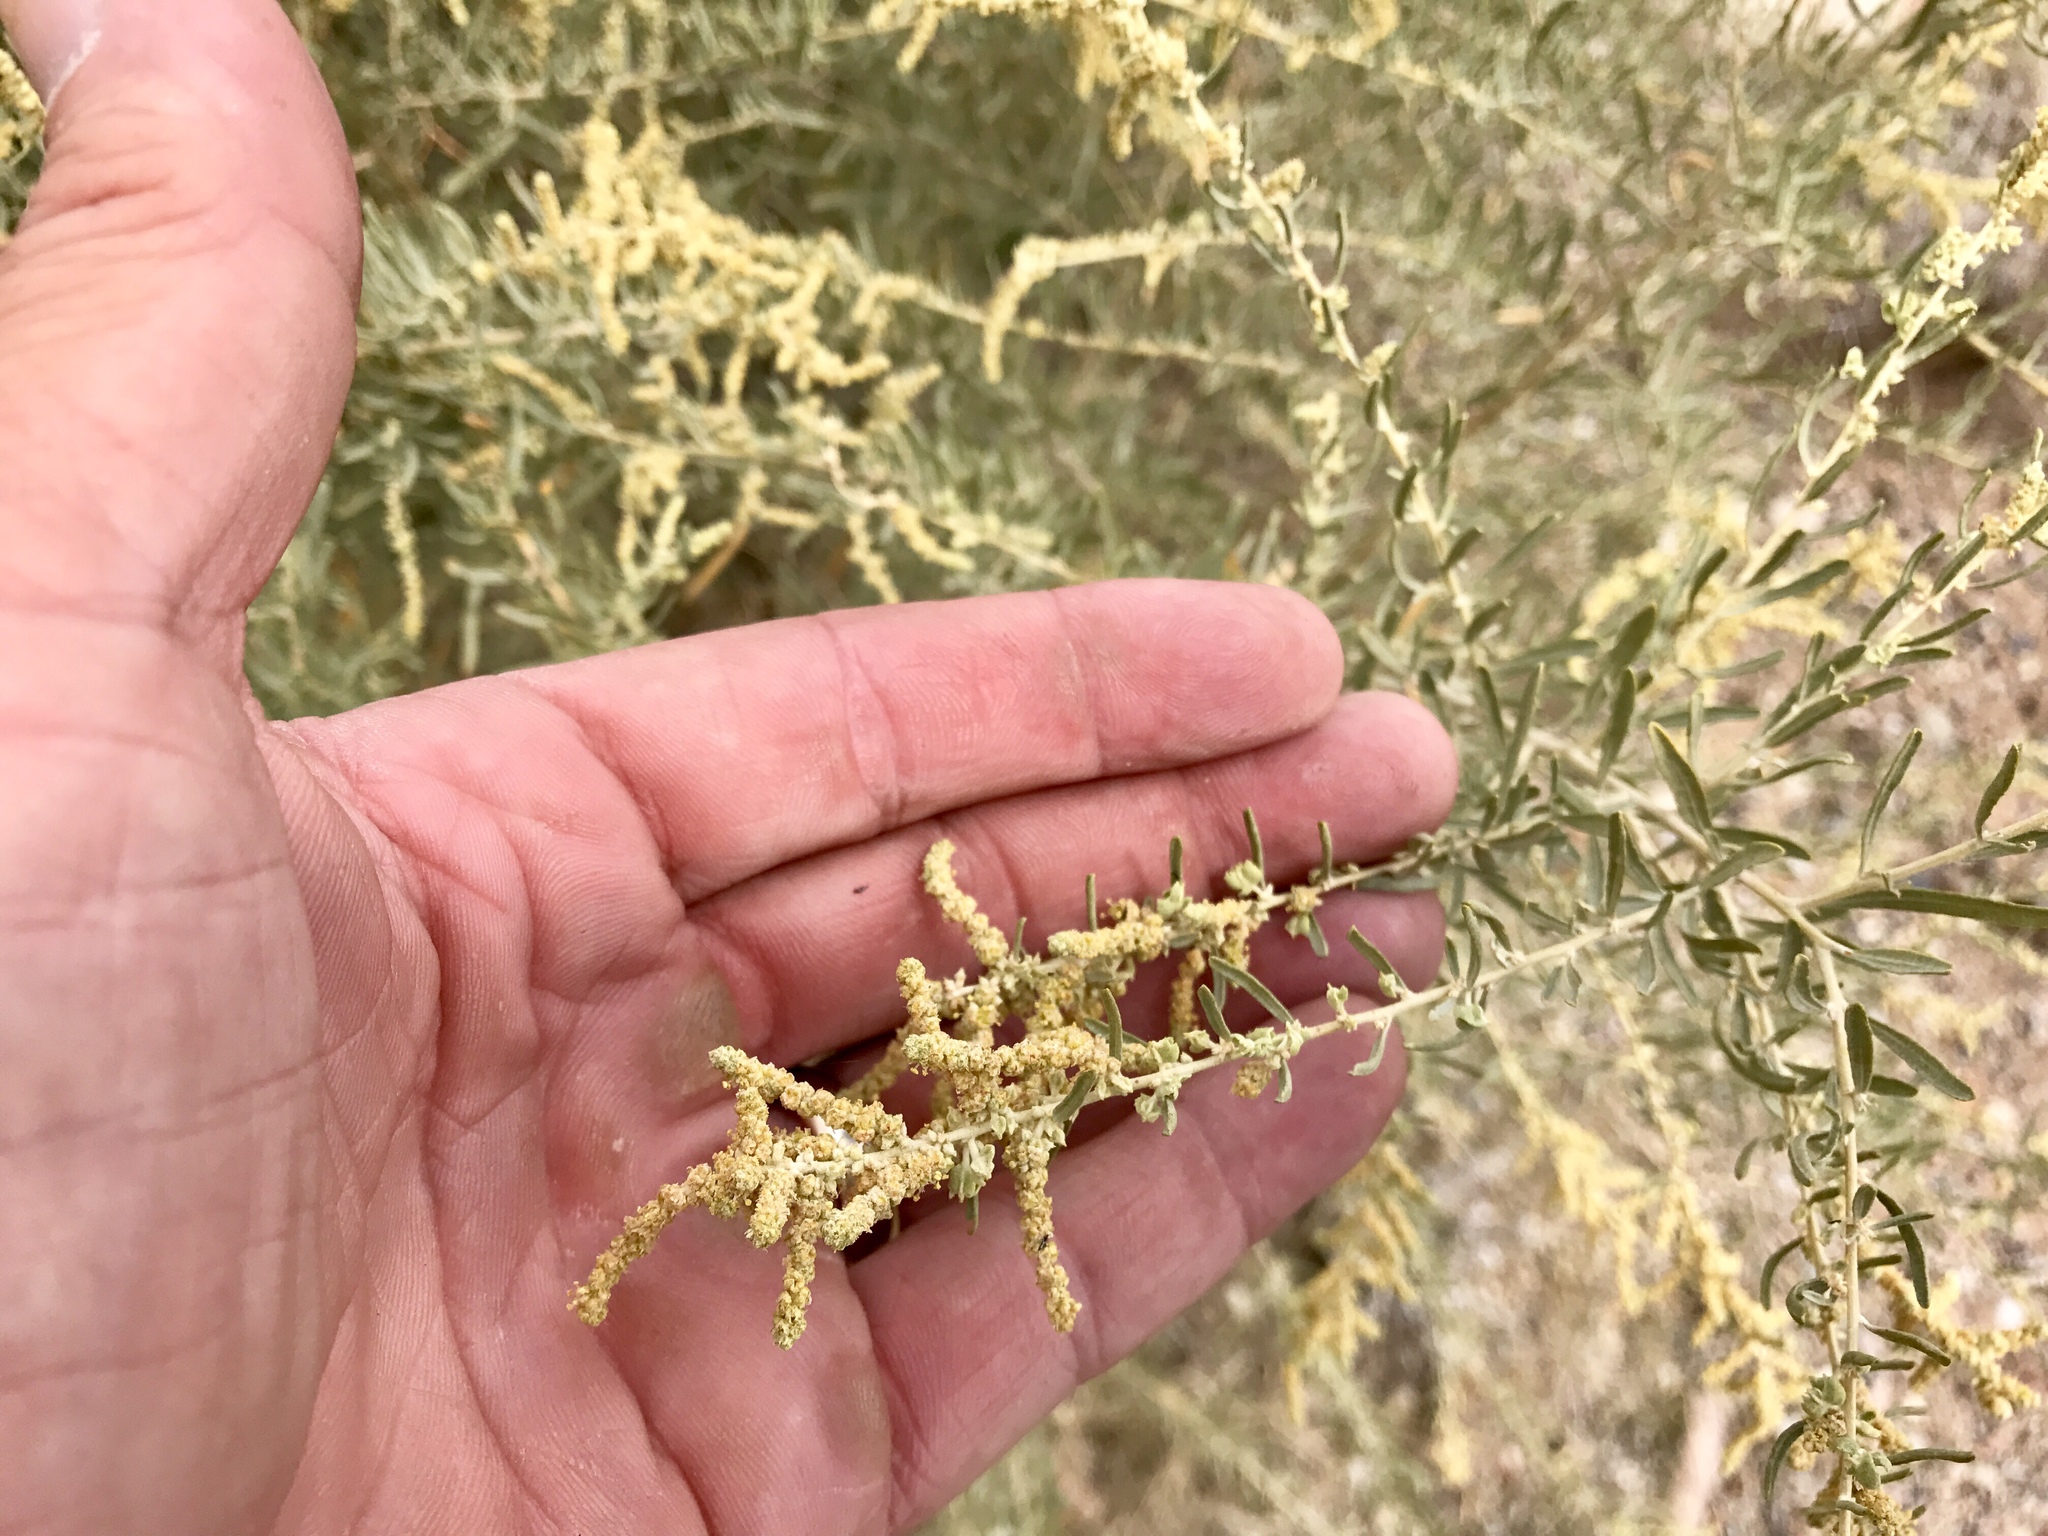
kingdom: Plantae
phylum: Tracheophyta
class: Magnoliopsida
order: Caryophyllales
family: Amaranthaceae
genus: Atriplex
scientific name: Atriplex canescens
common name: Four-wing saltbush
